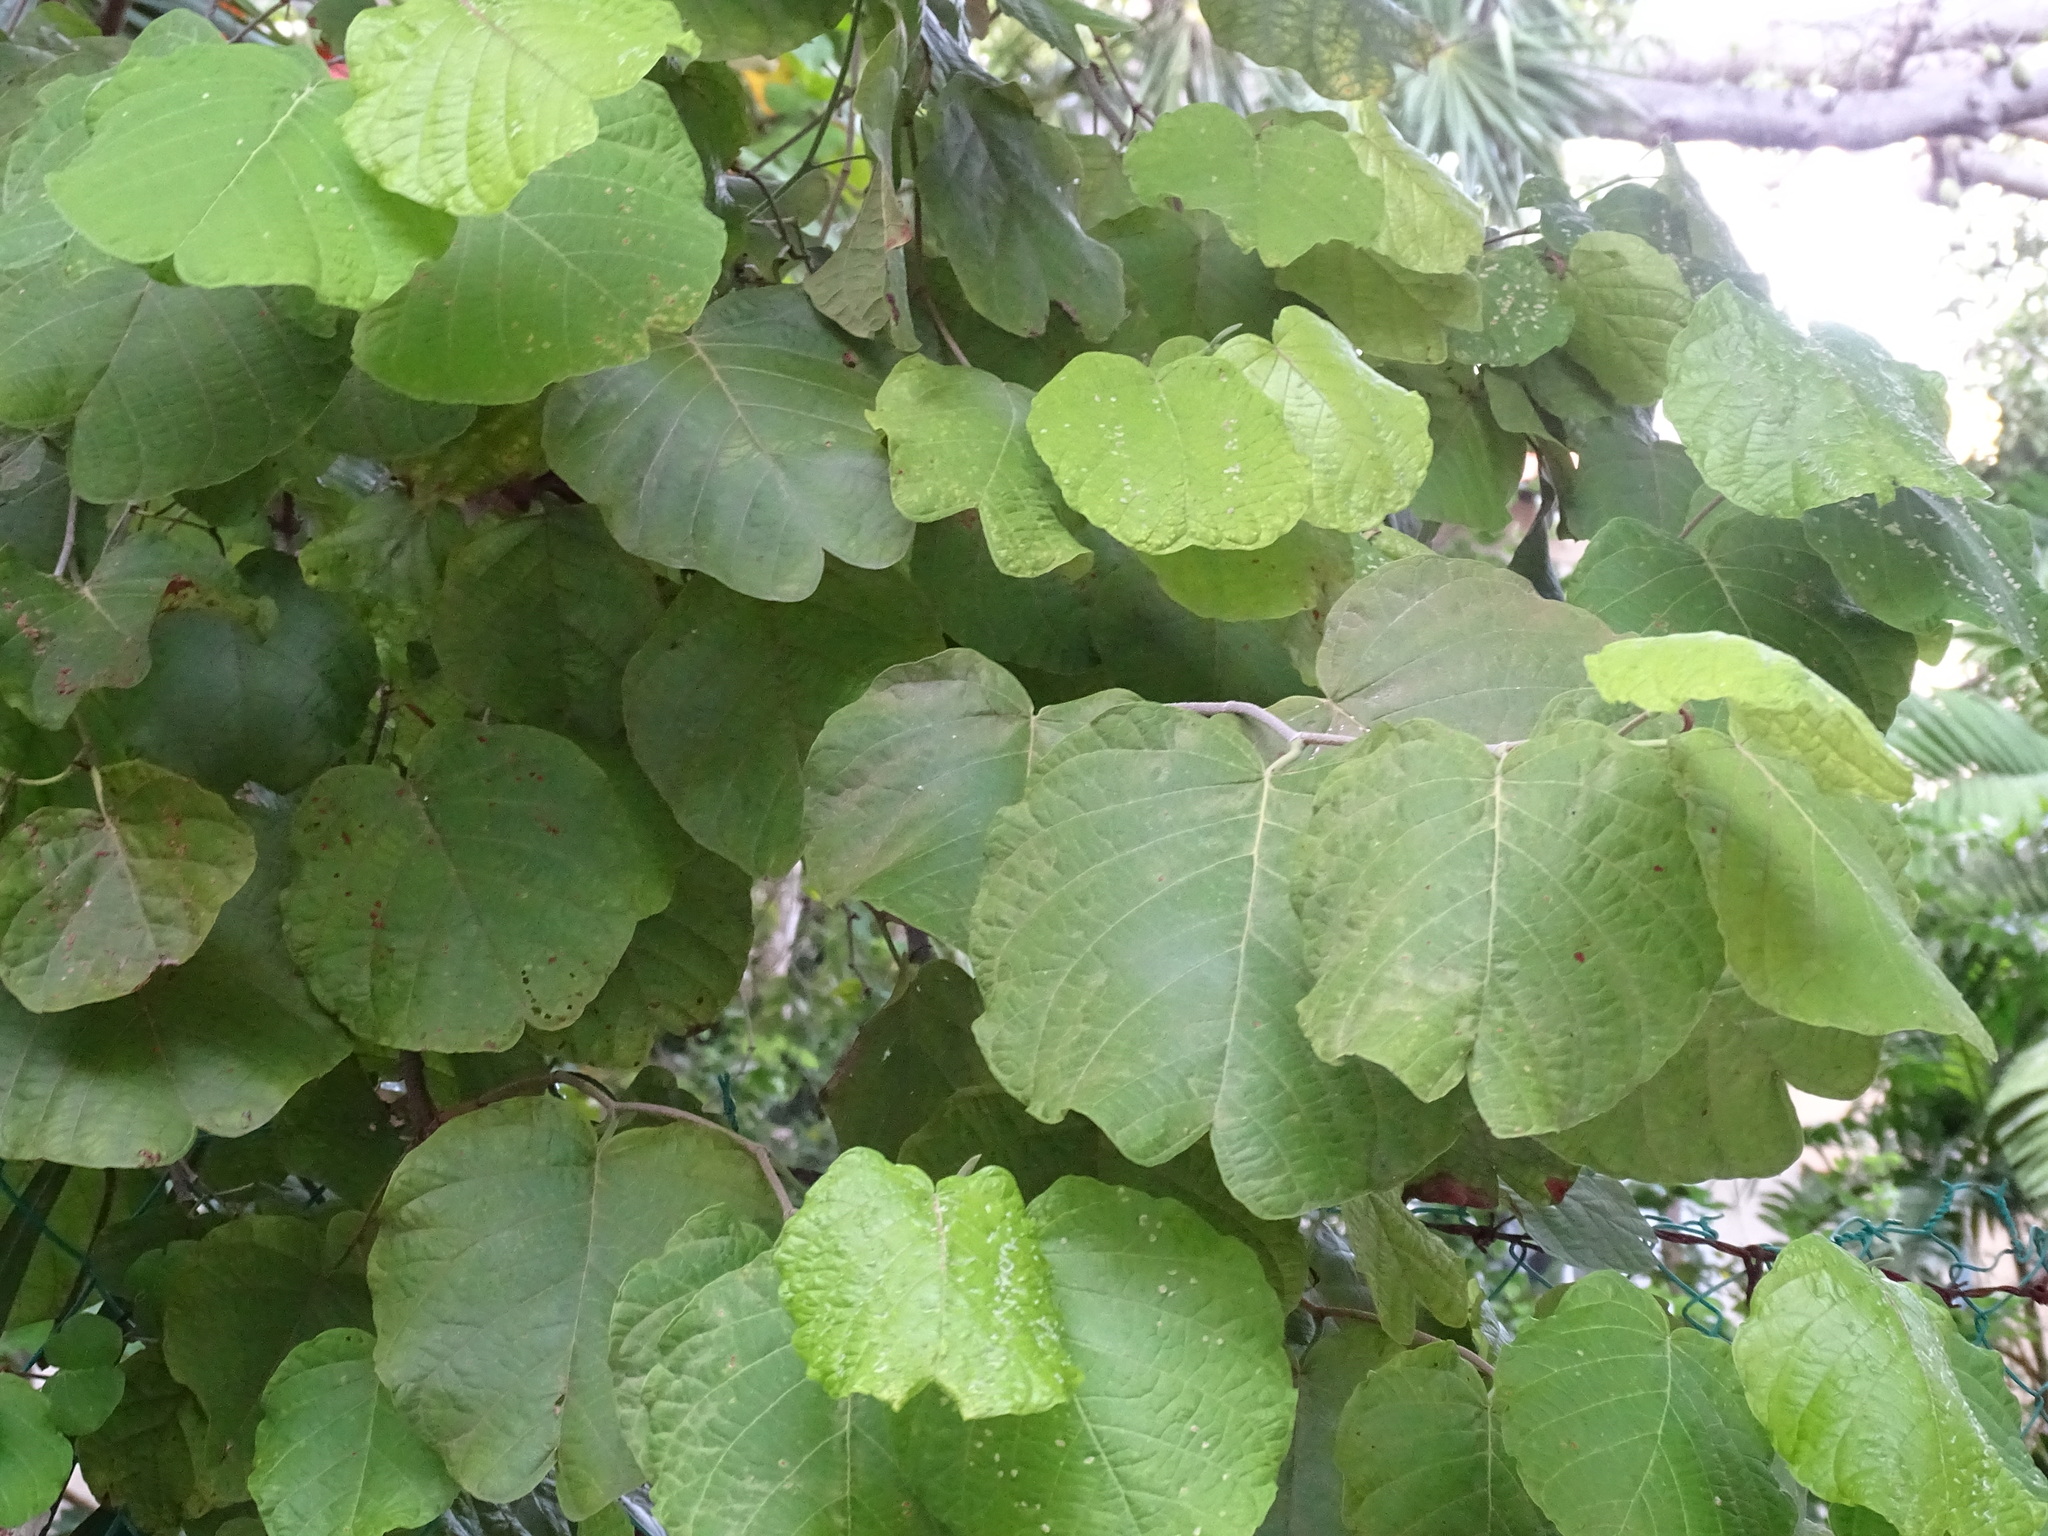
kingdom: Plantae
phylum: Tracheophyta
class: Magnoliopsida
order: Caryophyllales
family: Polygonaceae
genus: Neomillspaughia
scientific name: Neomillspaughia emarginata
